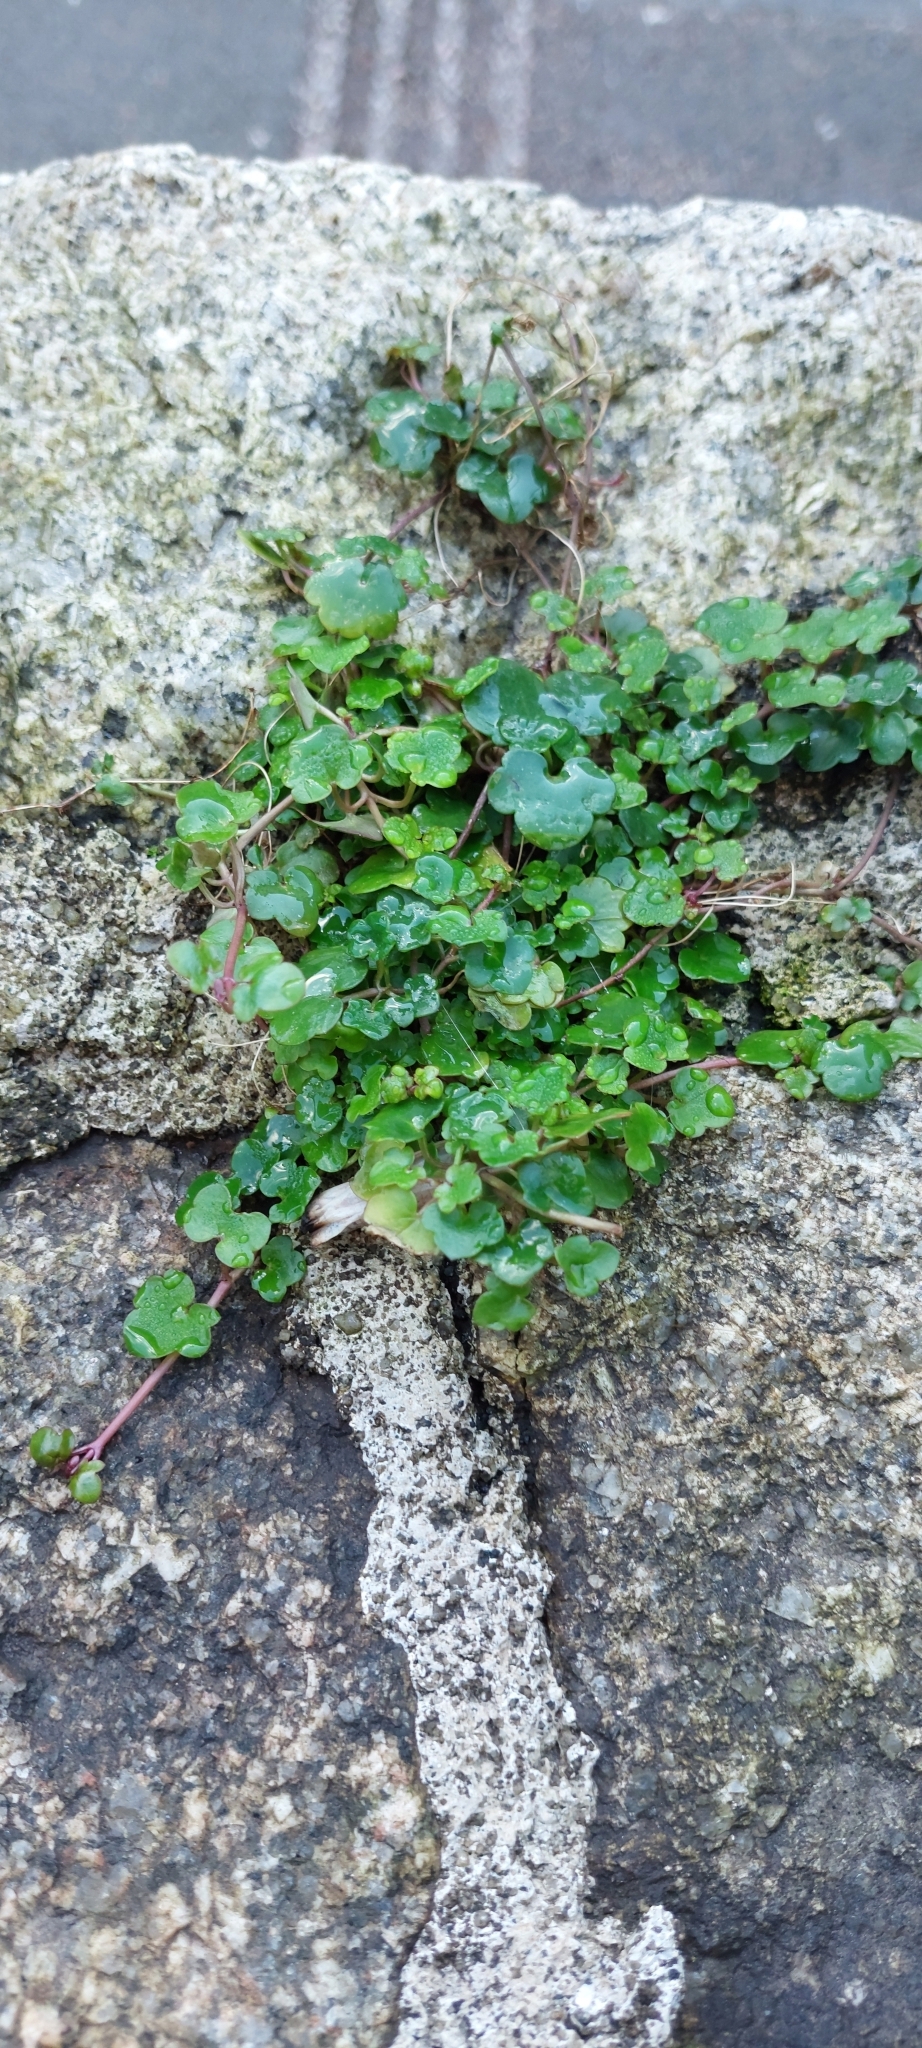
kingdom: Plantae
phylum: Tracheophyta
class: Magnoliopsida
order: Lamiales
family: Plantaginaceae
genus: Cymbalaria
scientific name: Cymbalaria muralis
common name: Ivy-leaved toadflax
